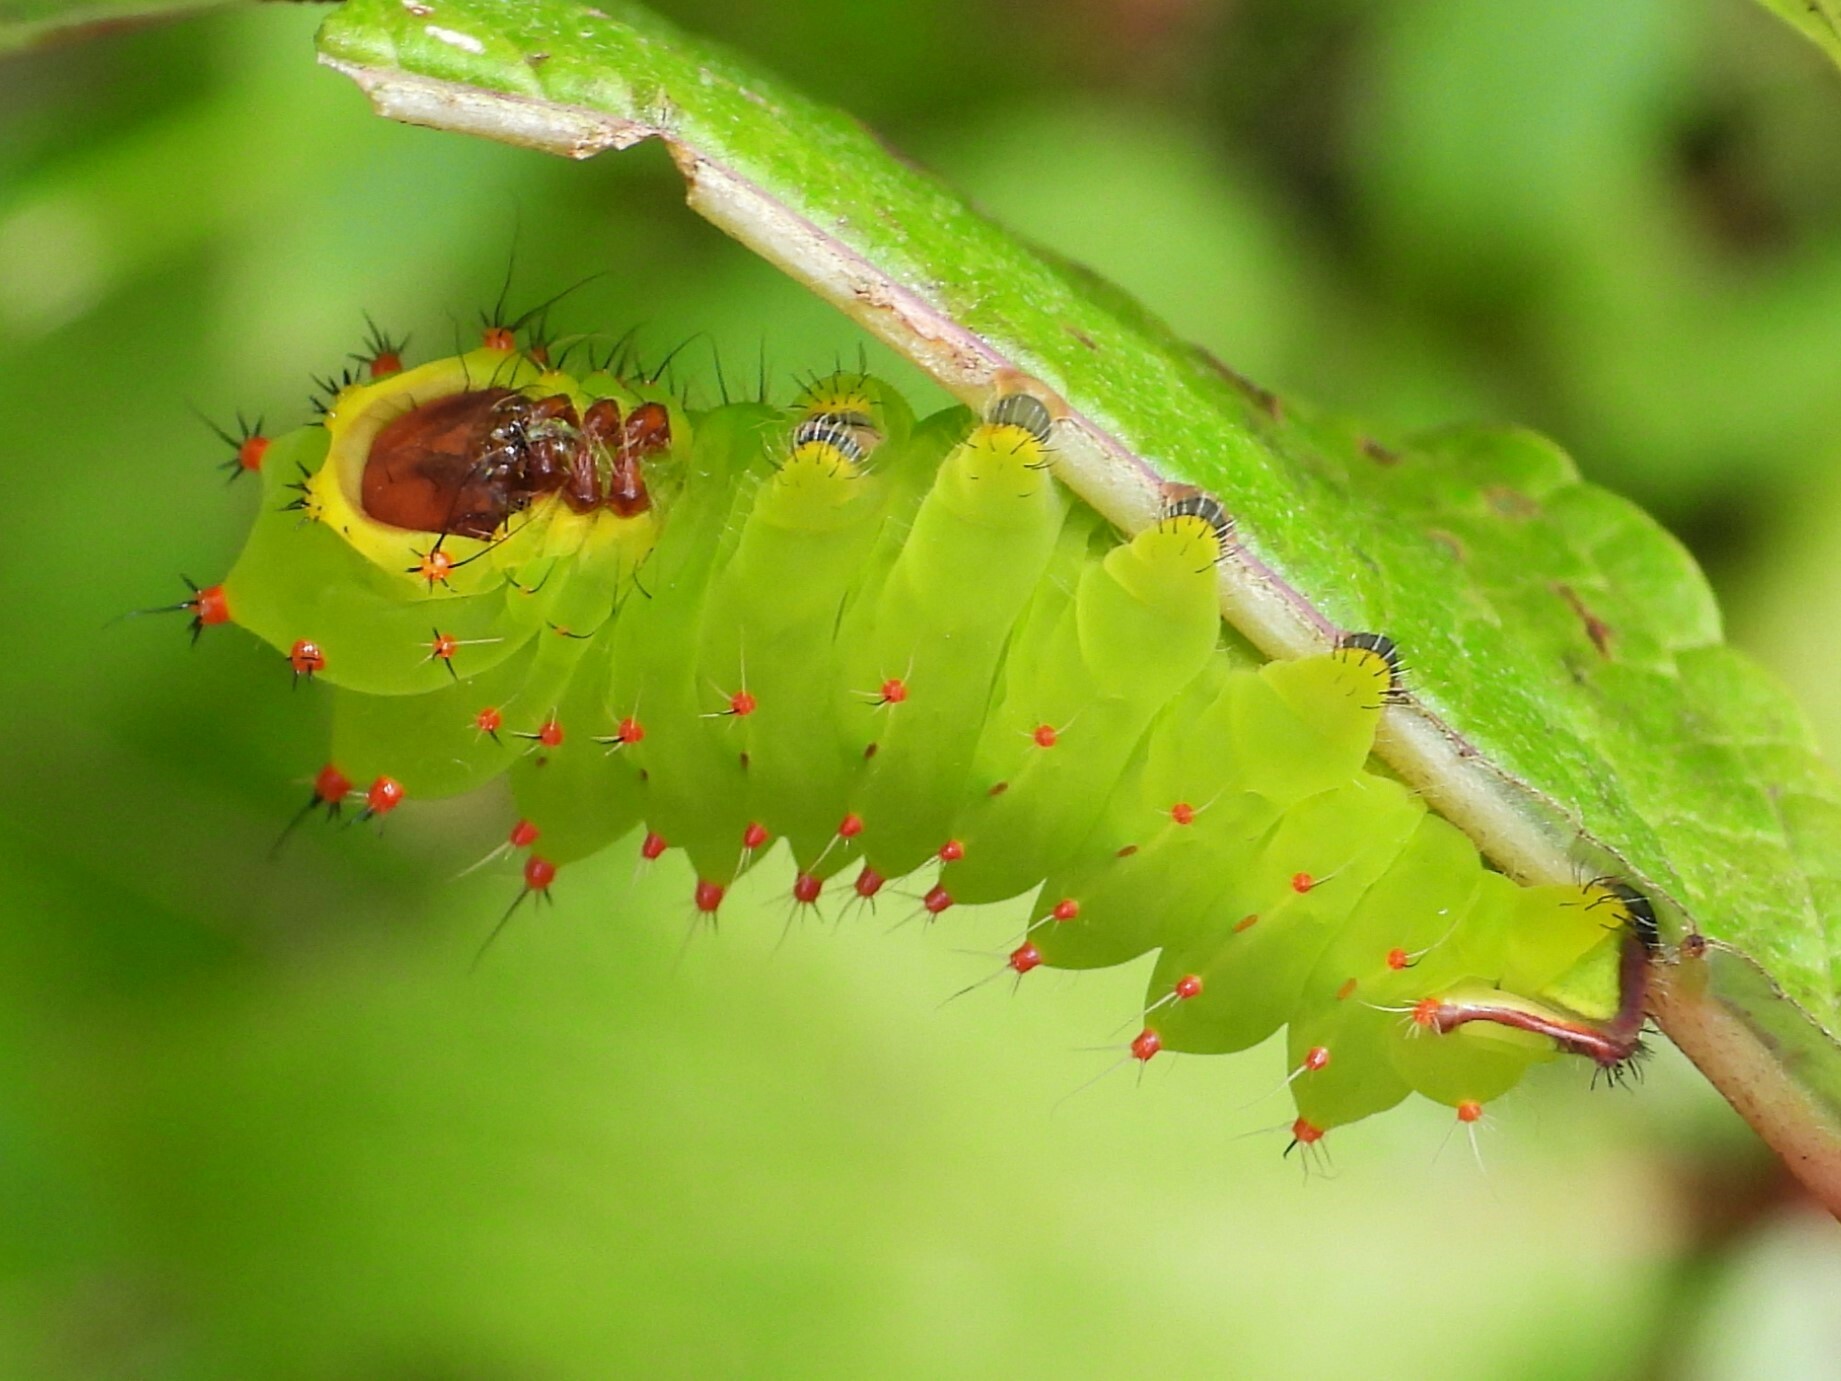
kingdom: Animalia
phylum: Arthropoda
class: Insecta
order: Lepidoptera
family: Saturniidae
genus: Antheraea
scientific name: Antheraea polyphemus
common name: Polyphemus moth
